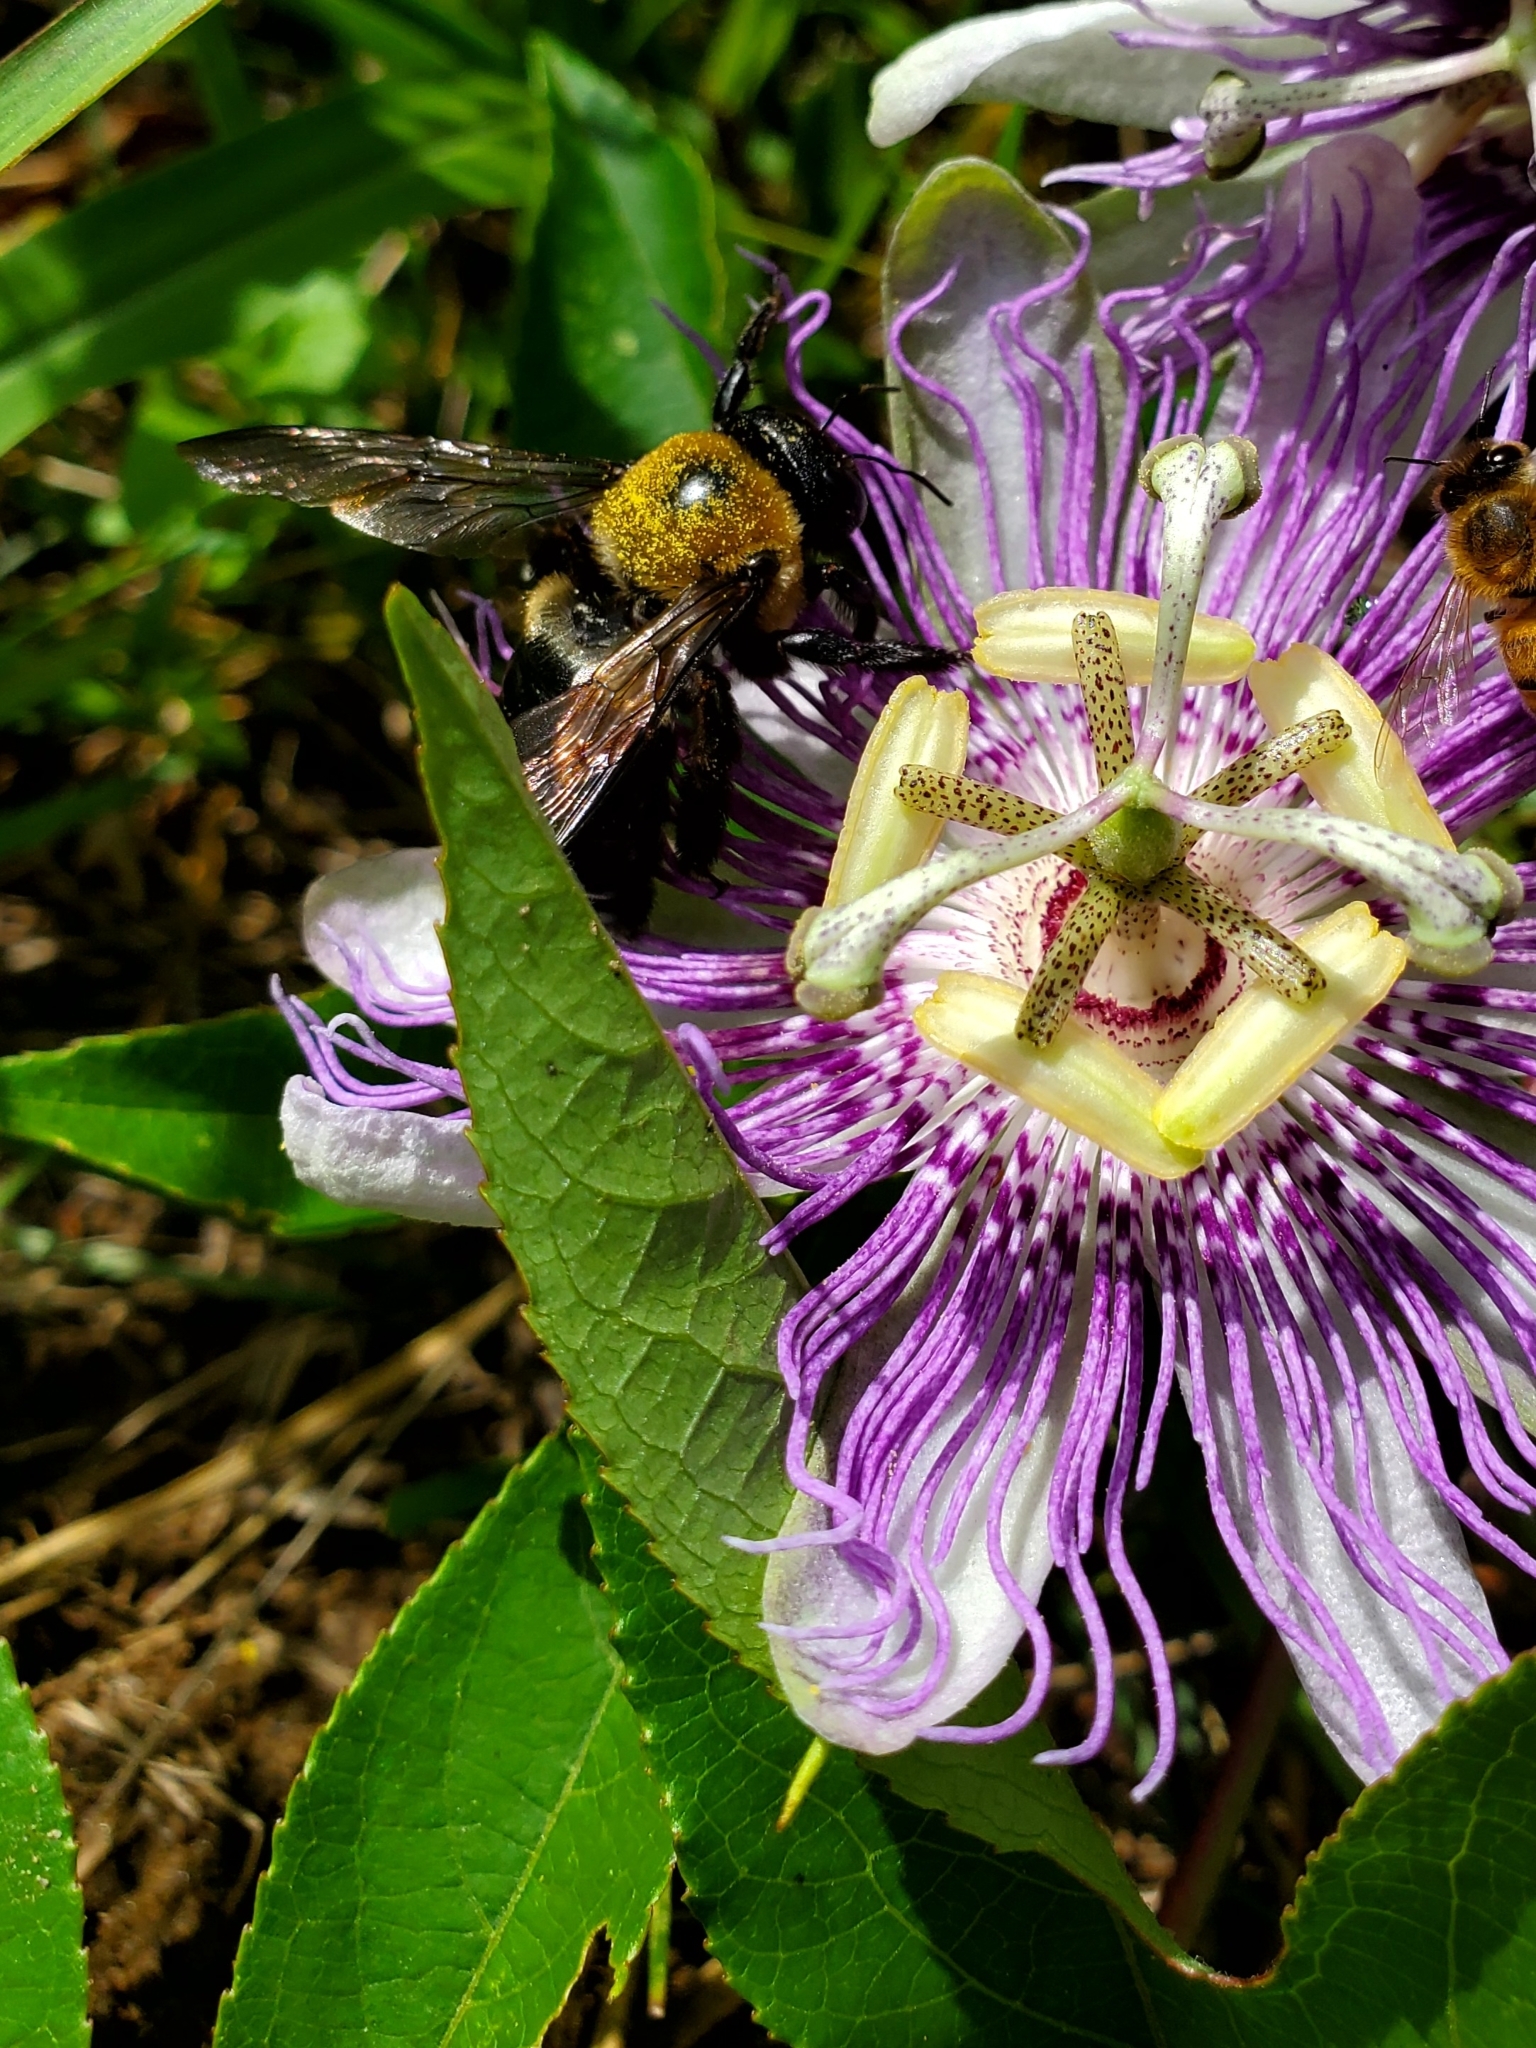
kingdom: Animalia
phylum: Arthropoda
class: Insecta
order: Hymenoptera
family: Apidae
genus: Xylocopa
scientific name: Xylocopa virginica
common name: Carpenter bee
